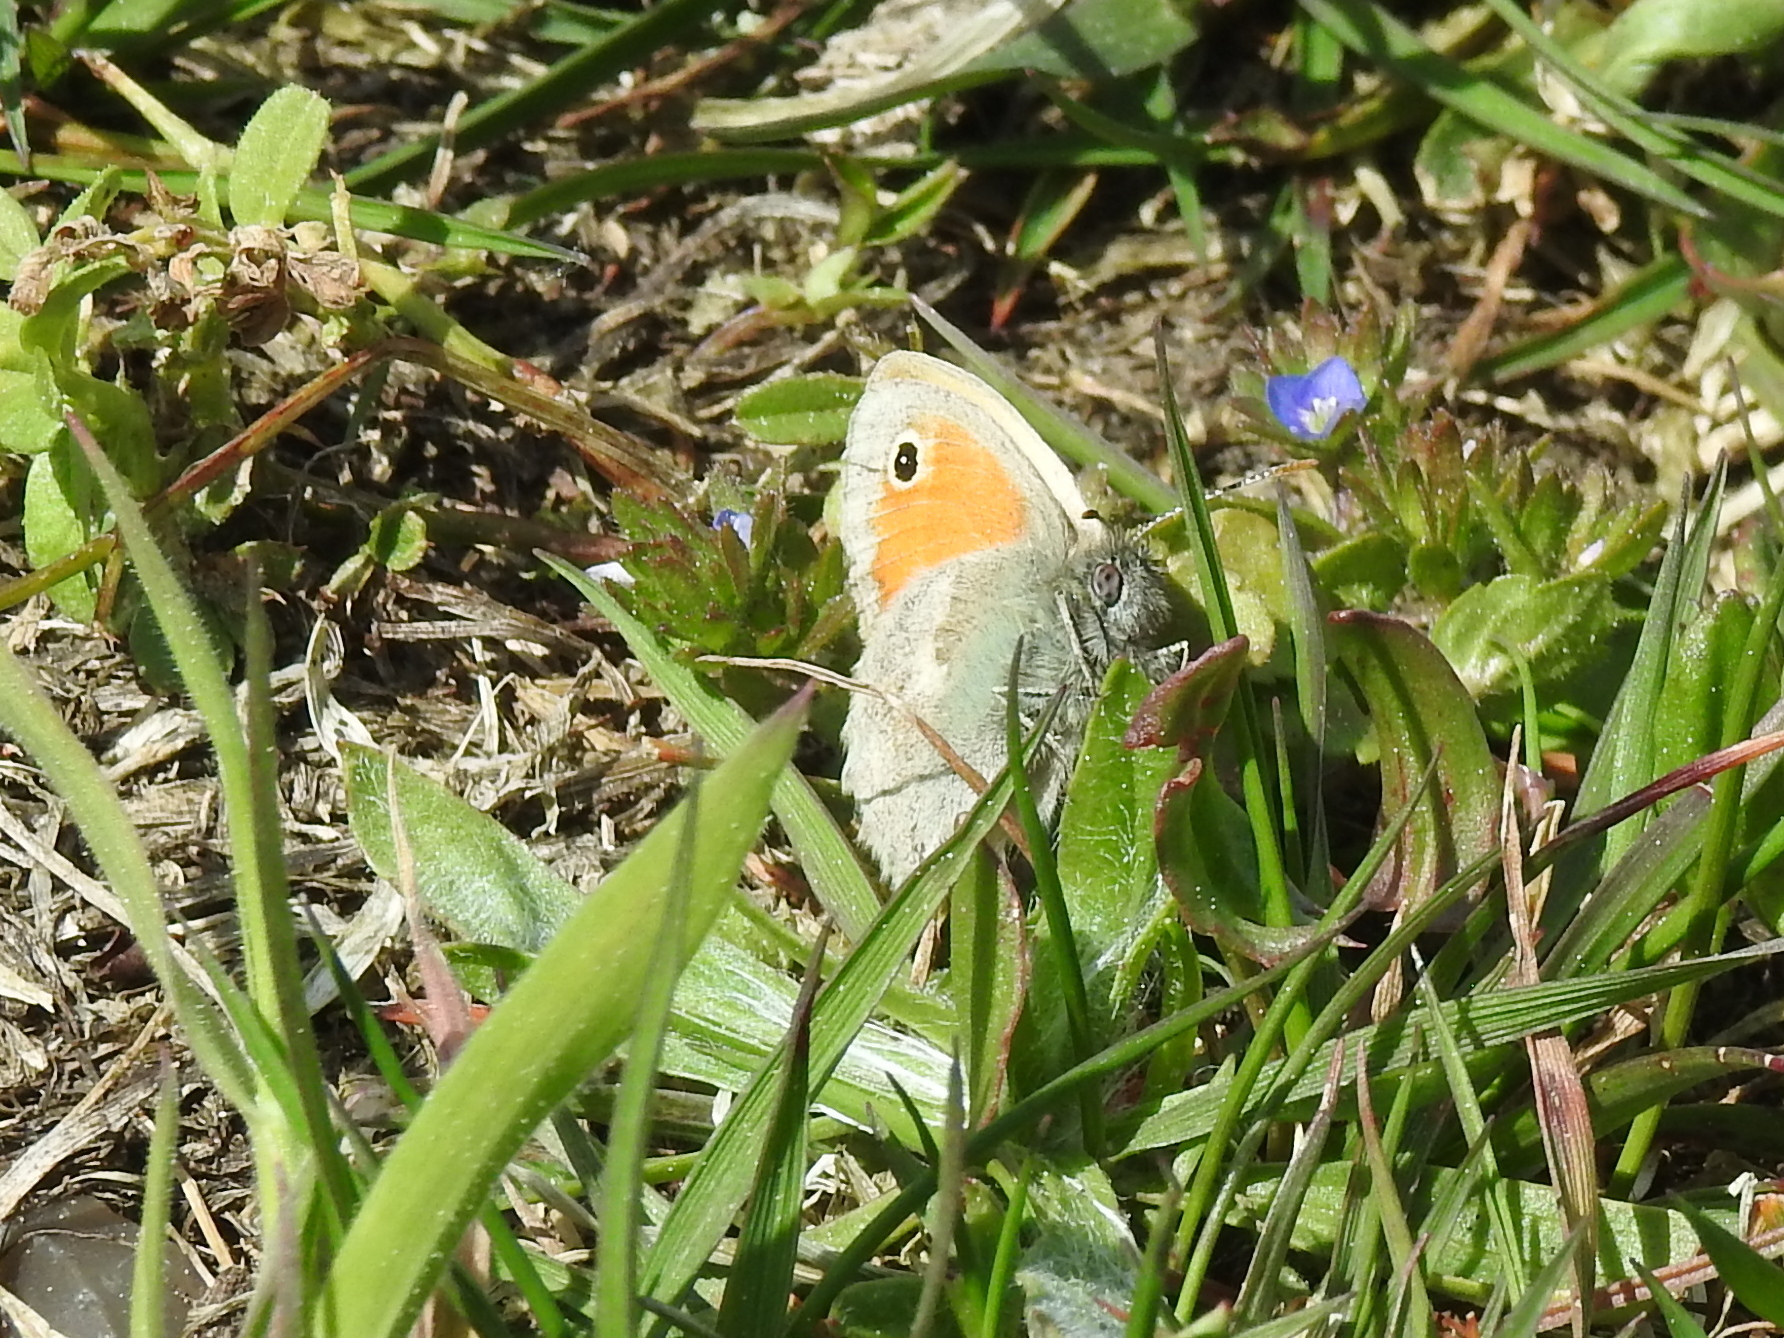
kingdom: Animalia
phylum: Arthropoda
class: Insecta
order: Lepidoptera
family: Nymphalidae
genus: Coenonympha
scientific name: Coenonympha pamphilus
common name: Small heath
